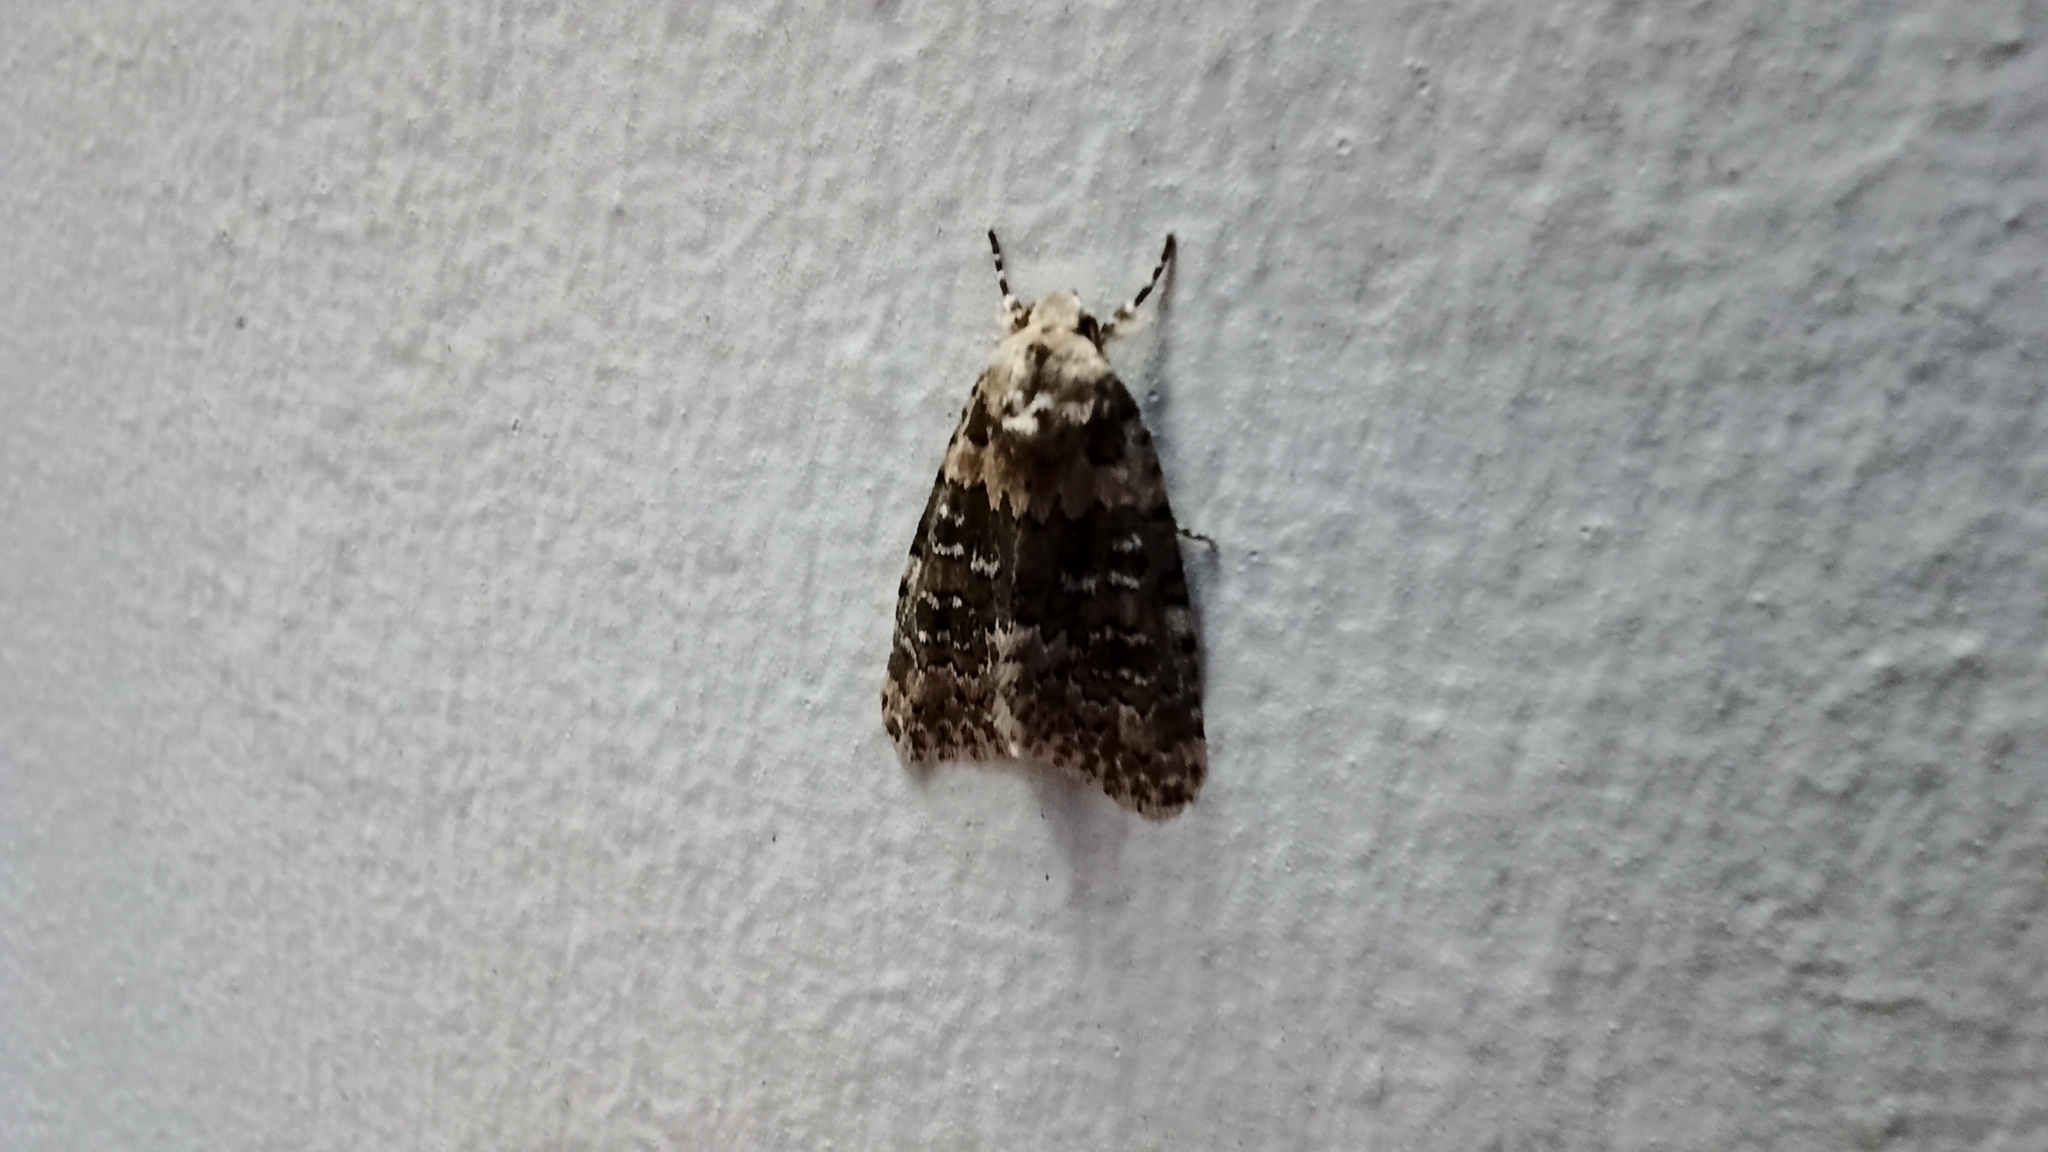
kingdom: Animalia
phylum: Arthropoda
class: Insecta
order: Lepidoptera
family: Noctuidae
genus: Bryophila
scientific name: Bryophila domestica
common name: Marbled beauty
